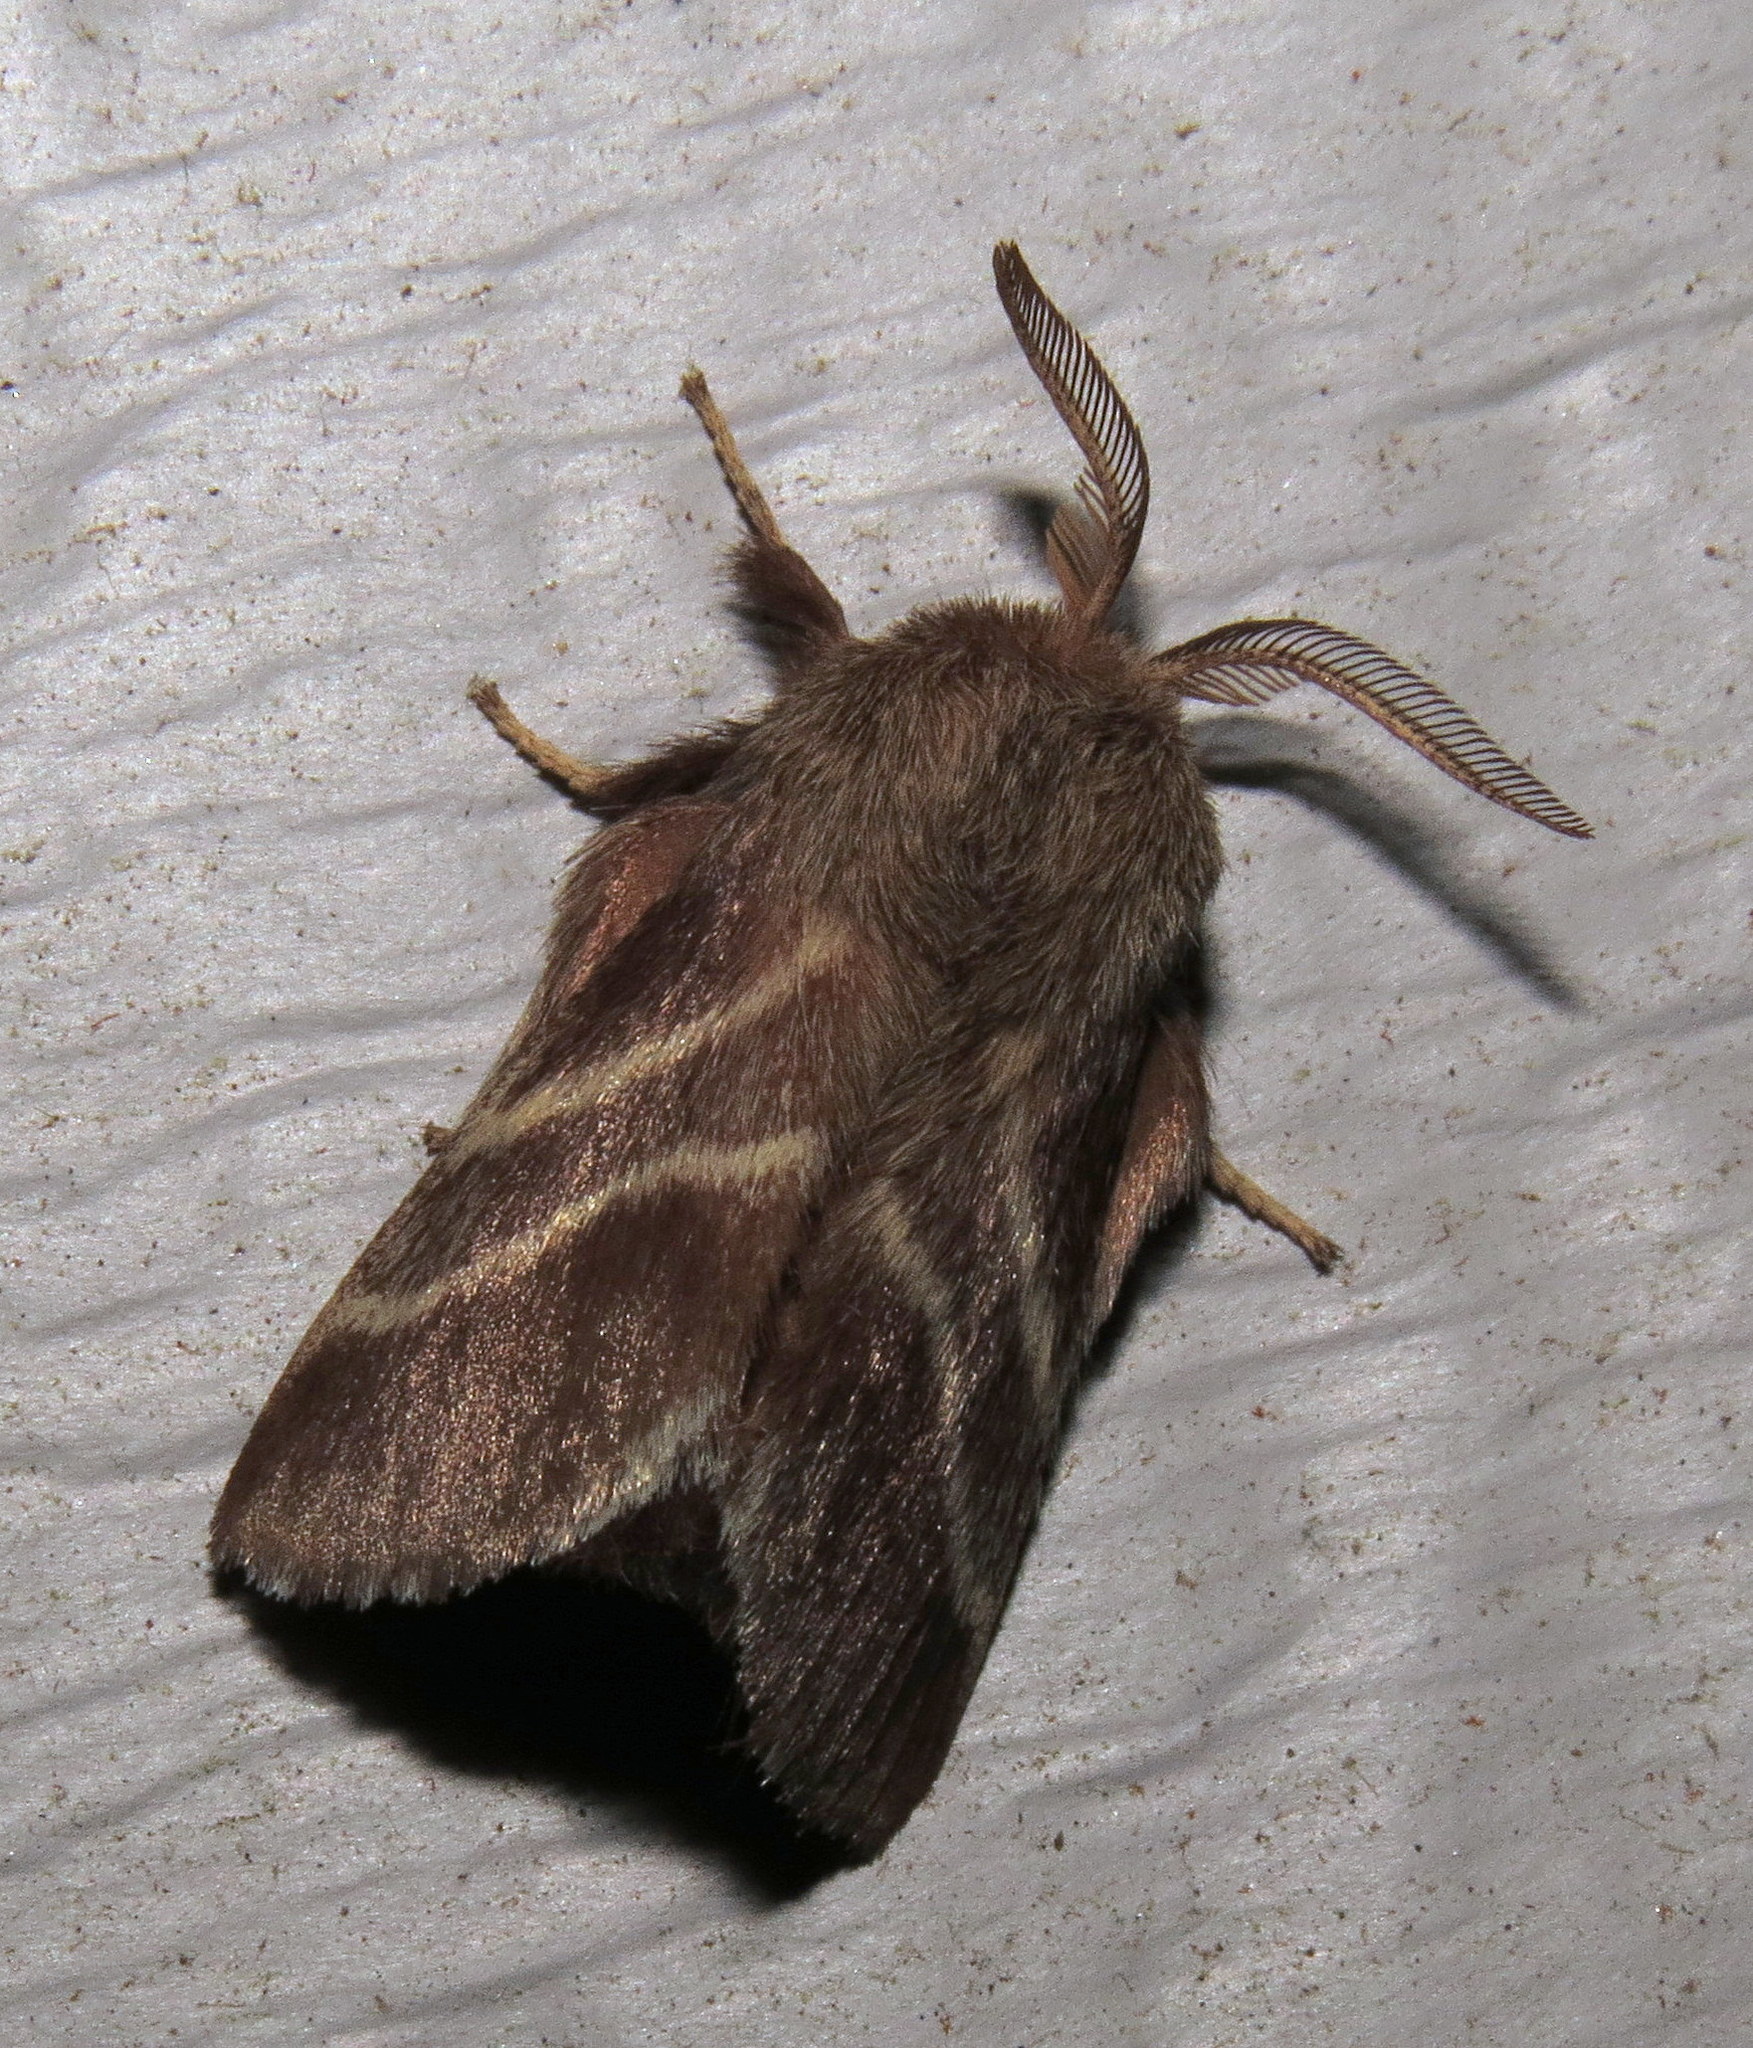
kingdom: Animalia
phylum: Arthropoda
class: Insecta
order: Lepidoptera
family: Lasiocampidae
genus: Malacosoma
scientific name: Malacosoma americana
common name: Eastern tent caterpillar moth
